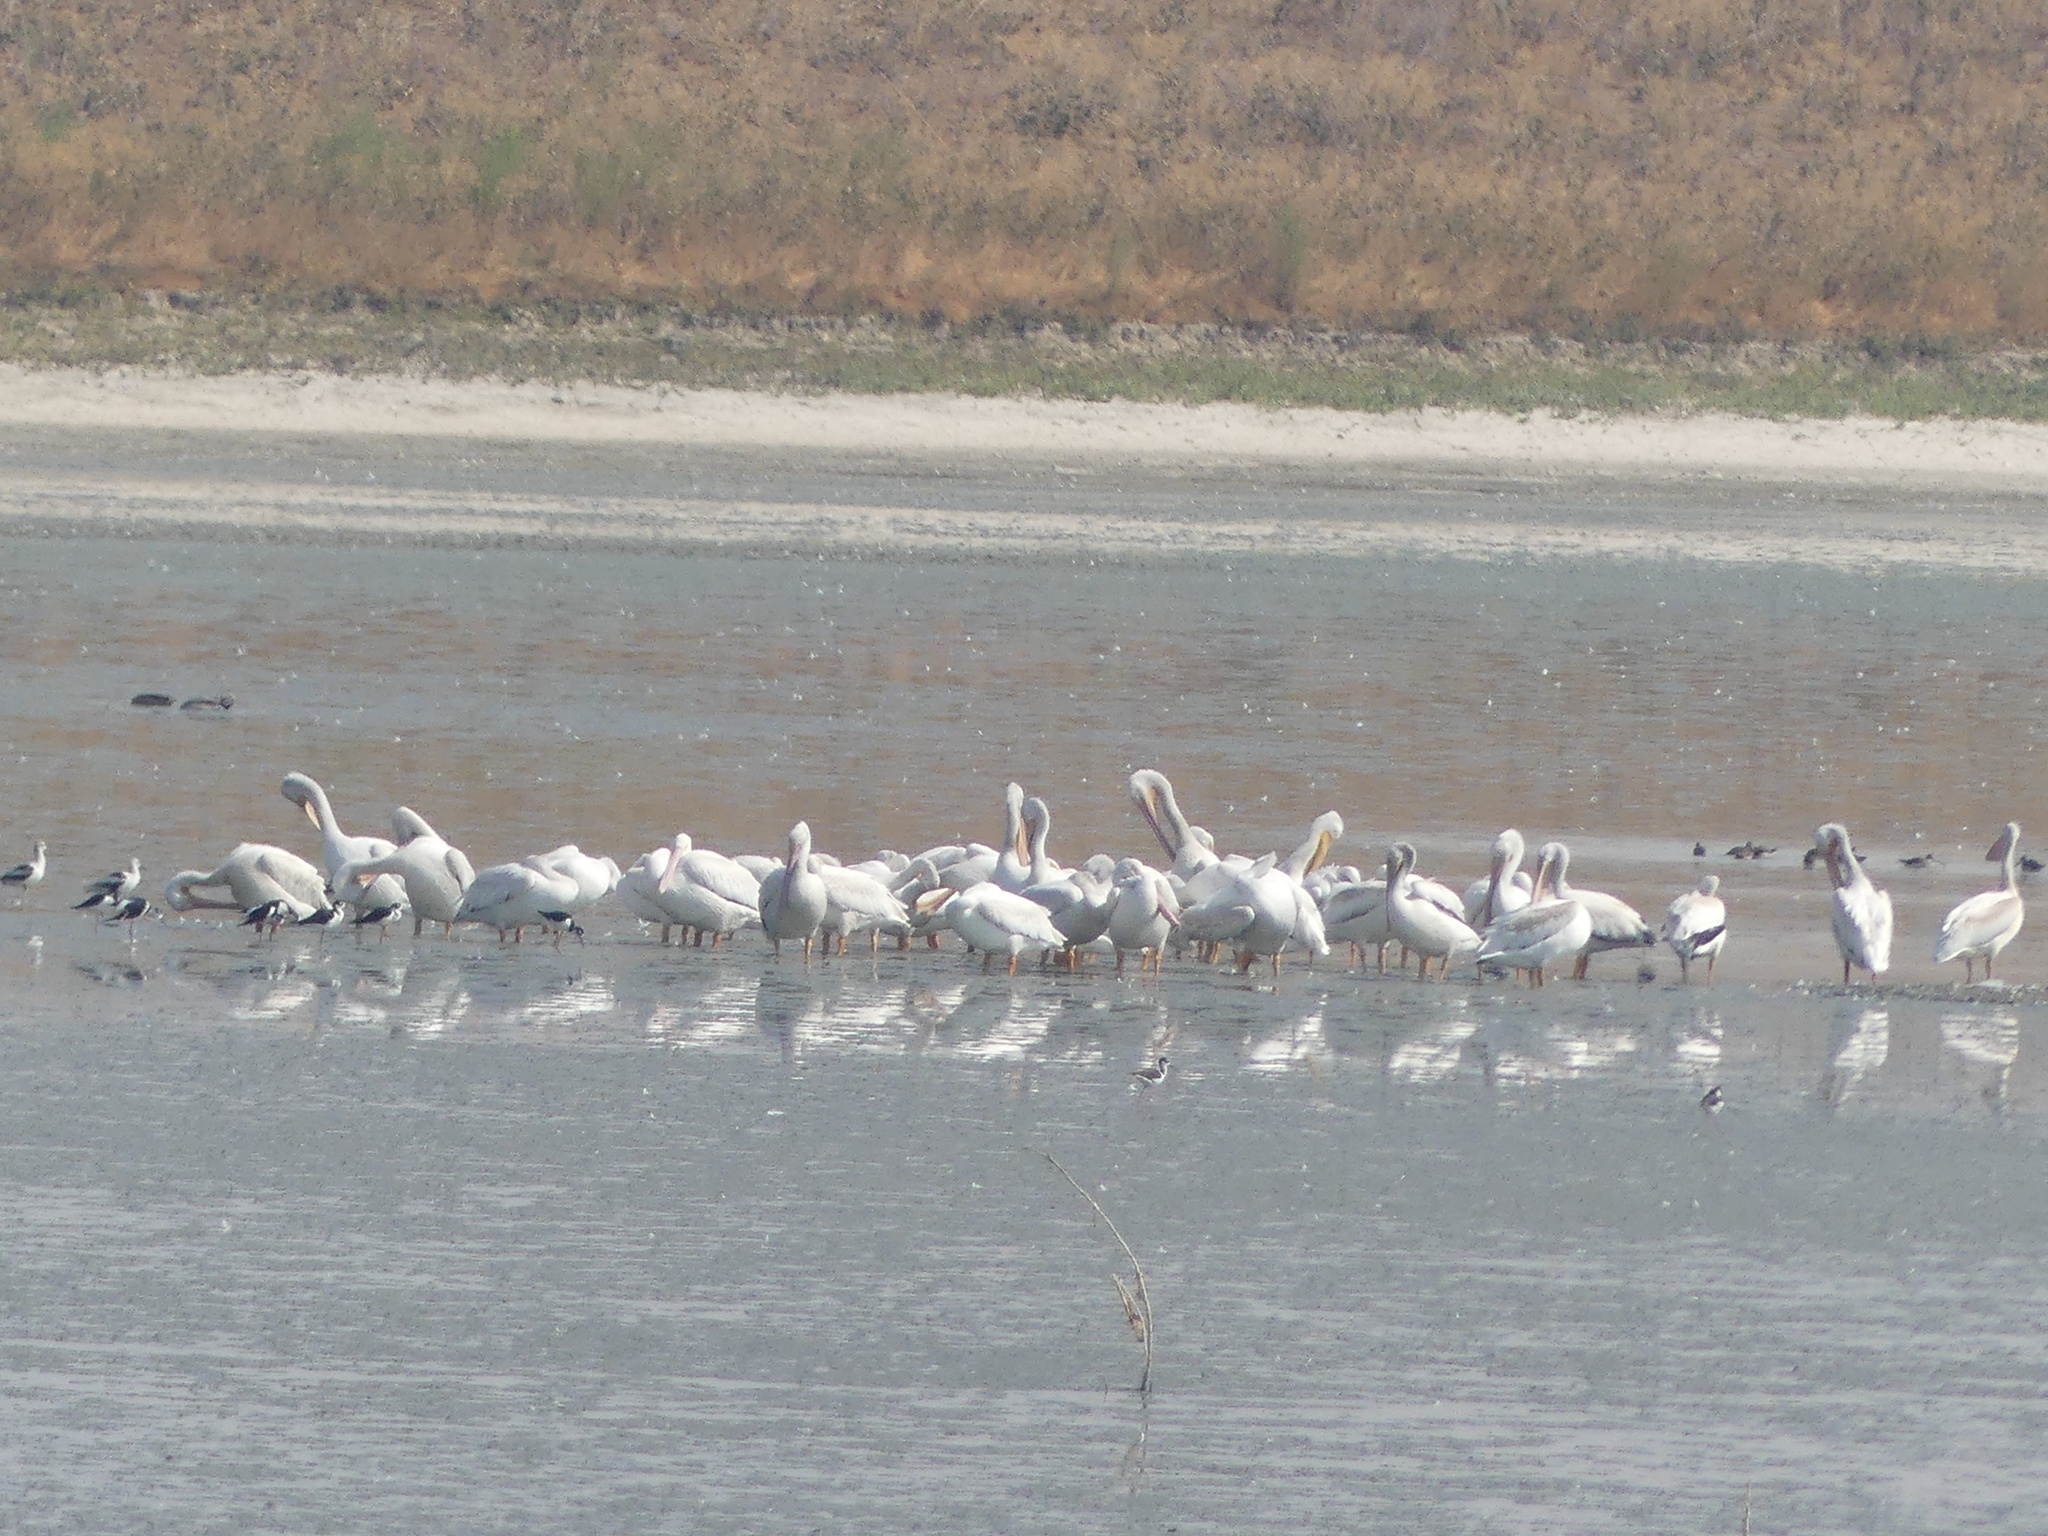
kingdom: Animalia
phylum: Chordata
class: Aves
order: Pelecaniformes
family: Pelecanidae
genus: Pelecanus
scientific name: Pelecanus erythrorhynchos
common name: American white pelican
